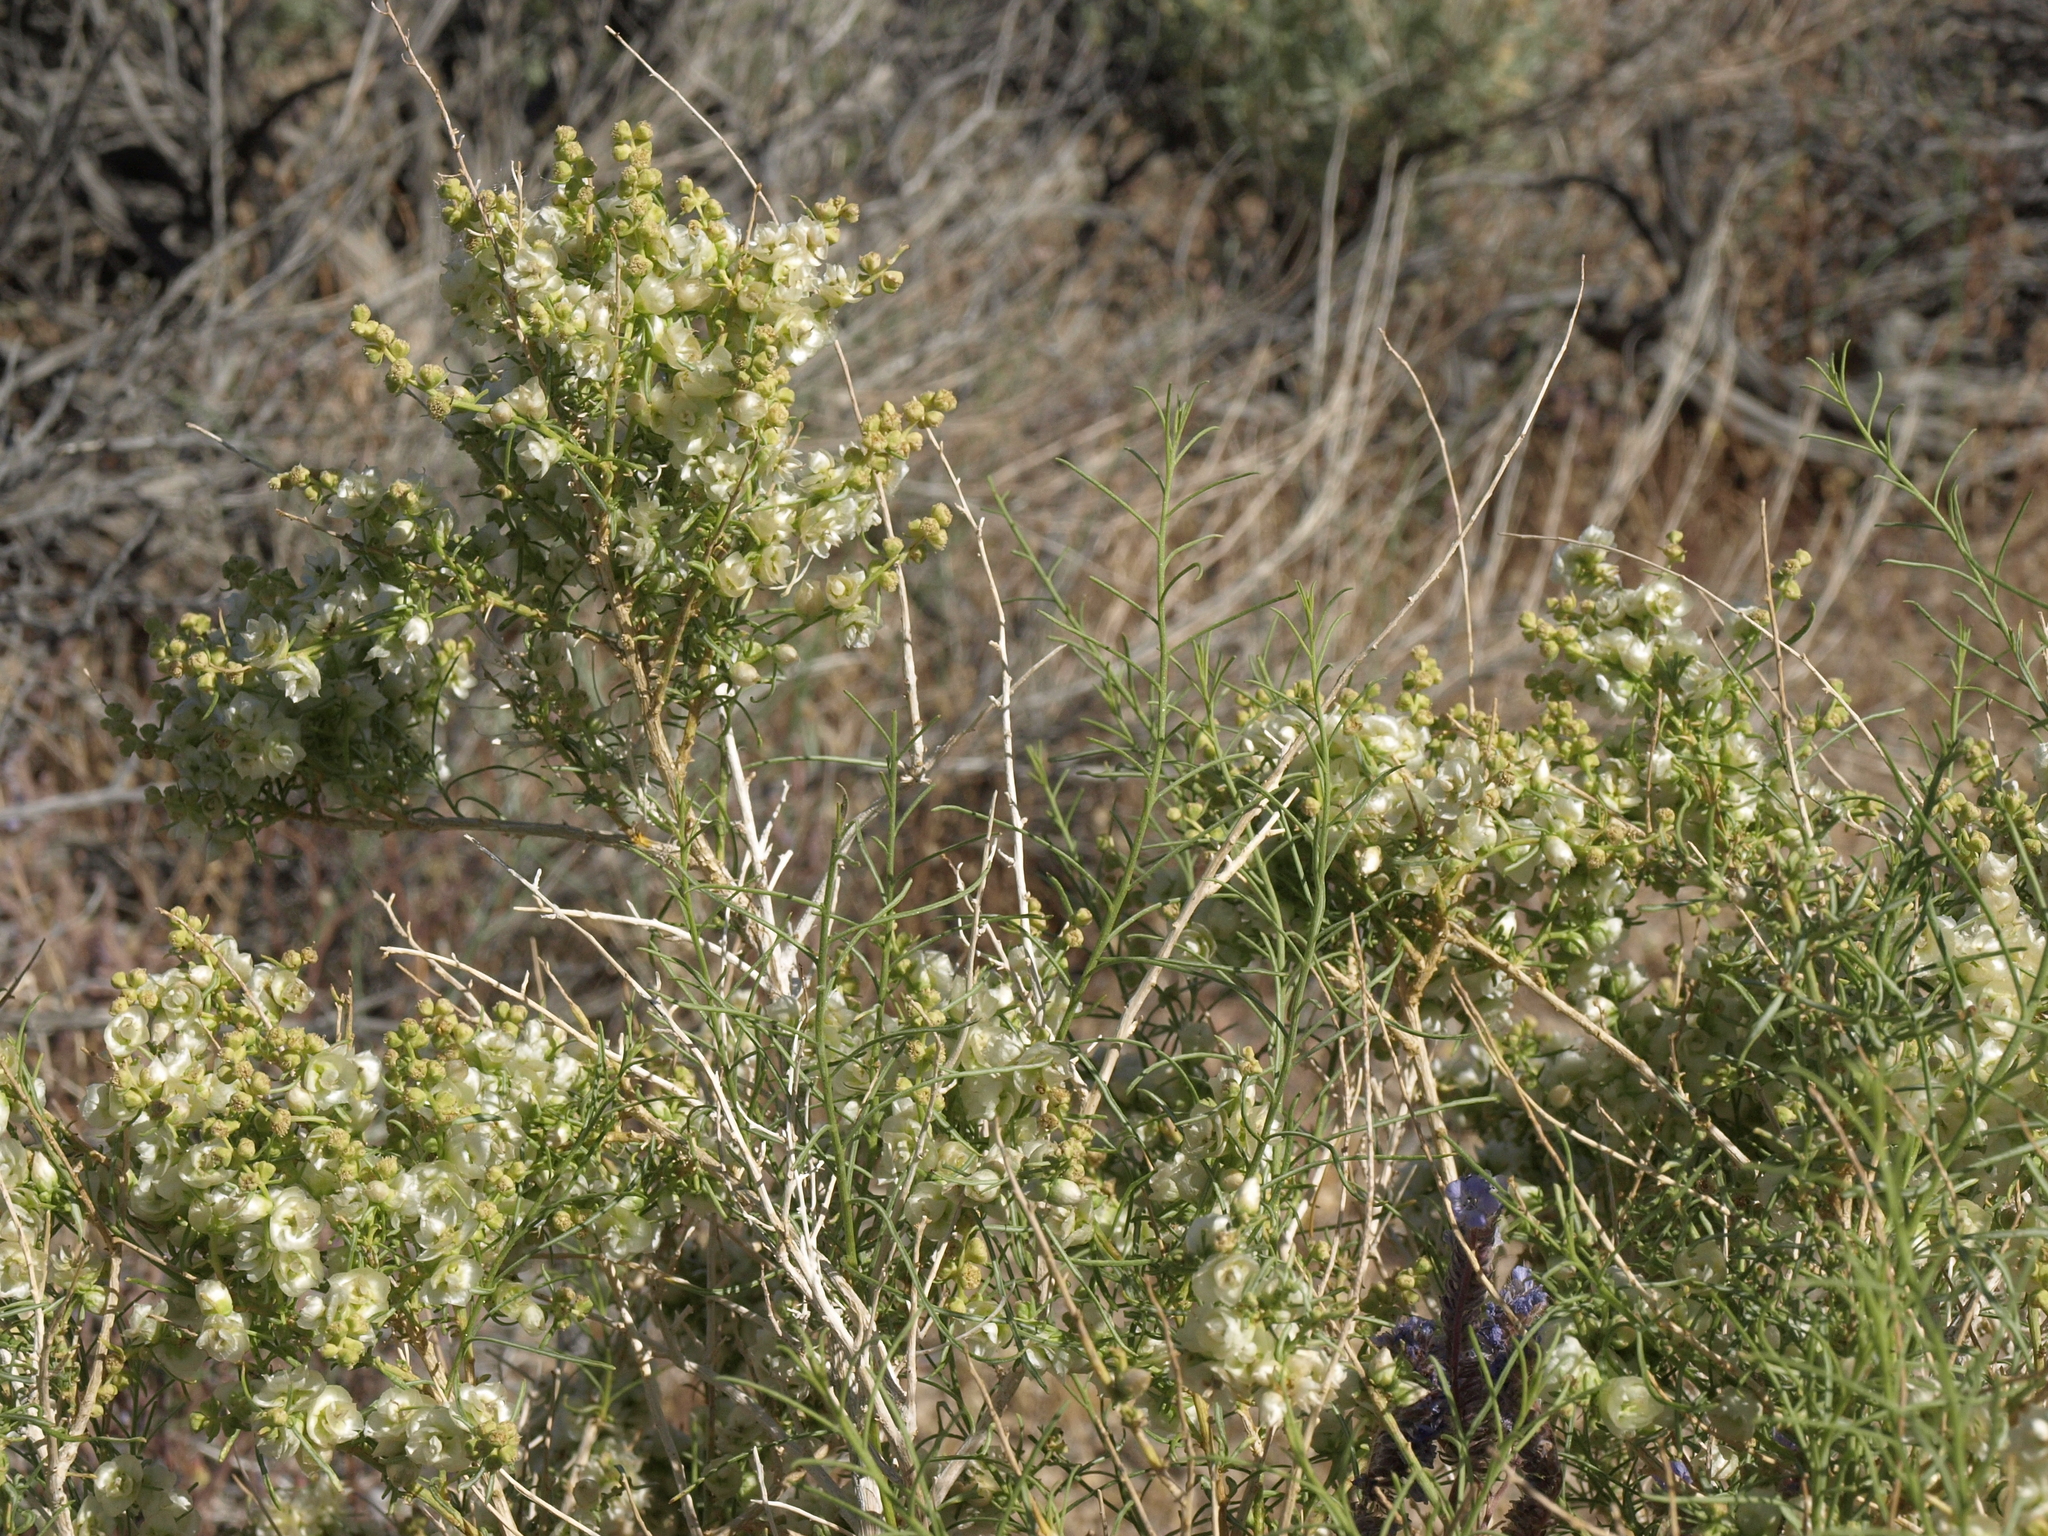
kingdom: Plantae
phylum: Tracheophyta
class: Magnoliopsida
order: Asterales
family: Asteraceae
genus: Ambrosia
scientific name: Ambrosia salsola
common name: Burrobrush
